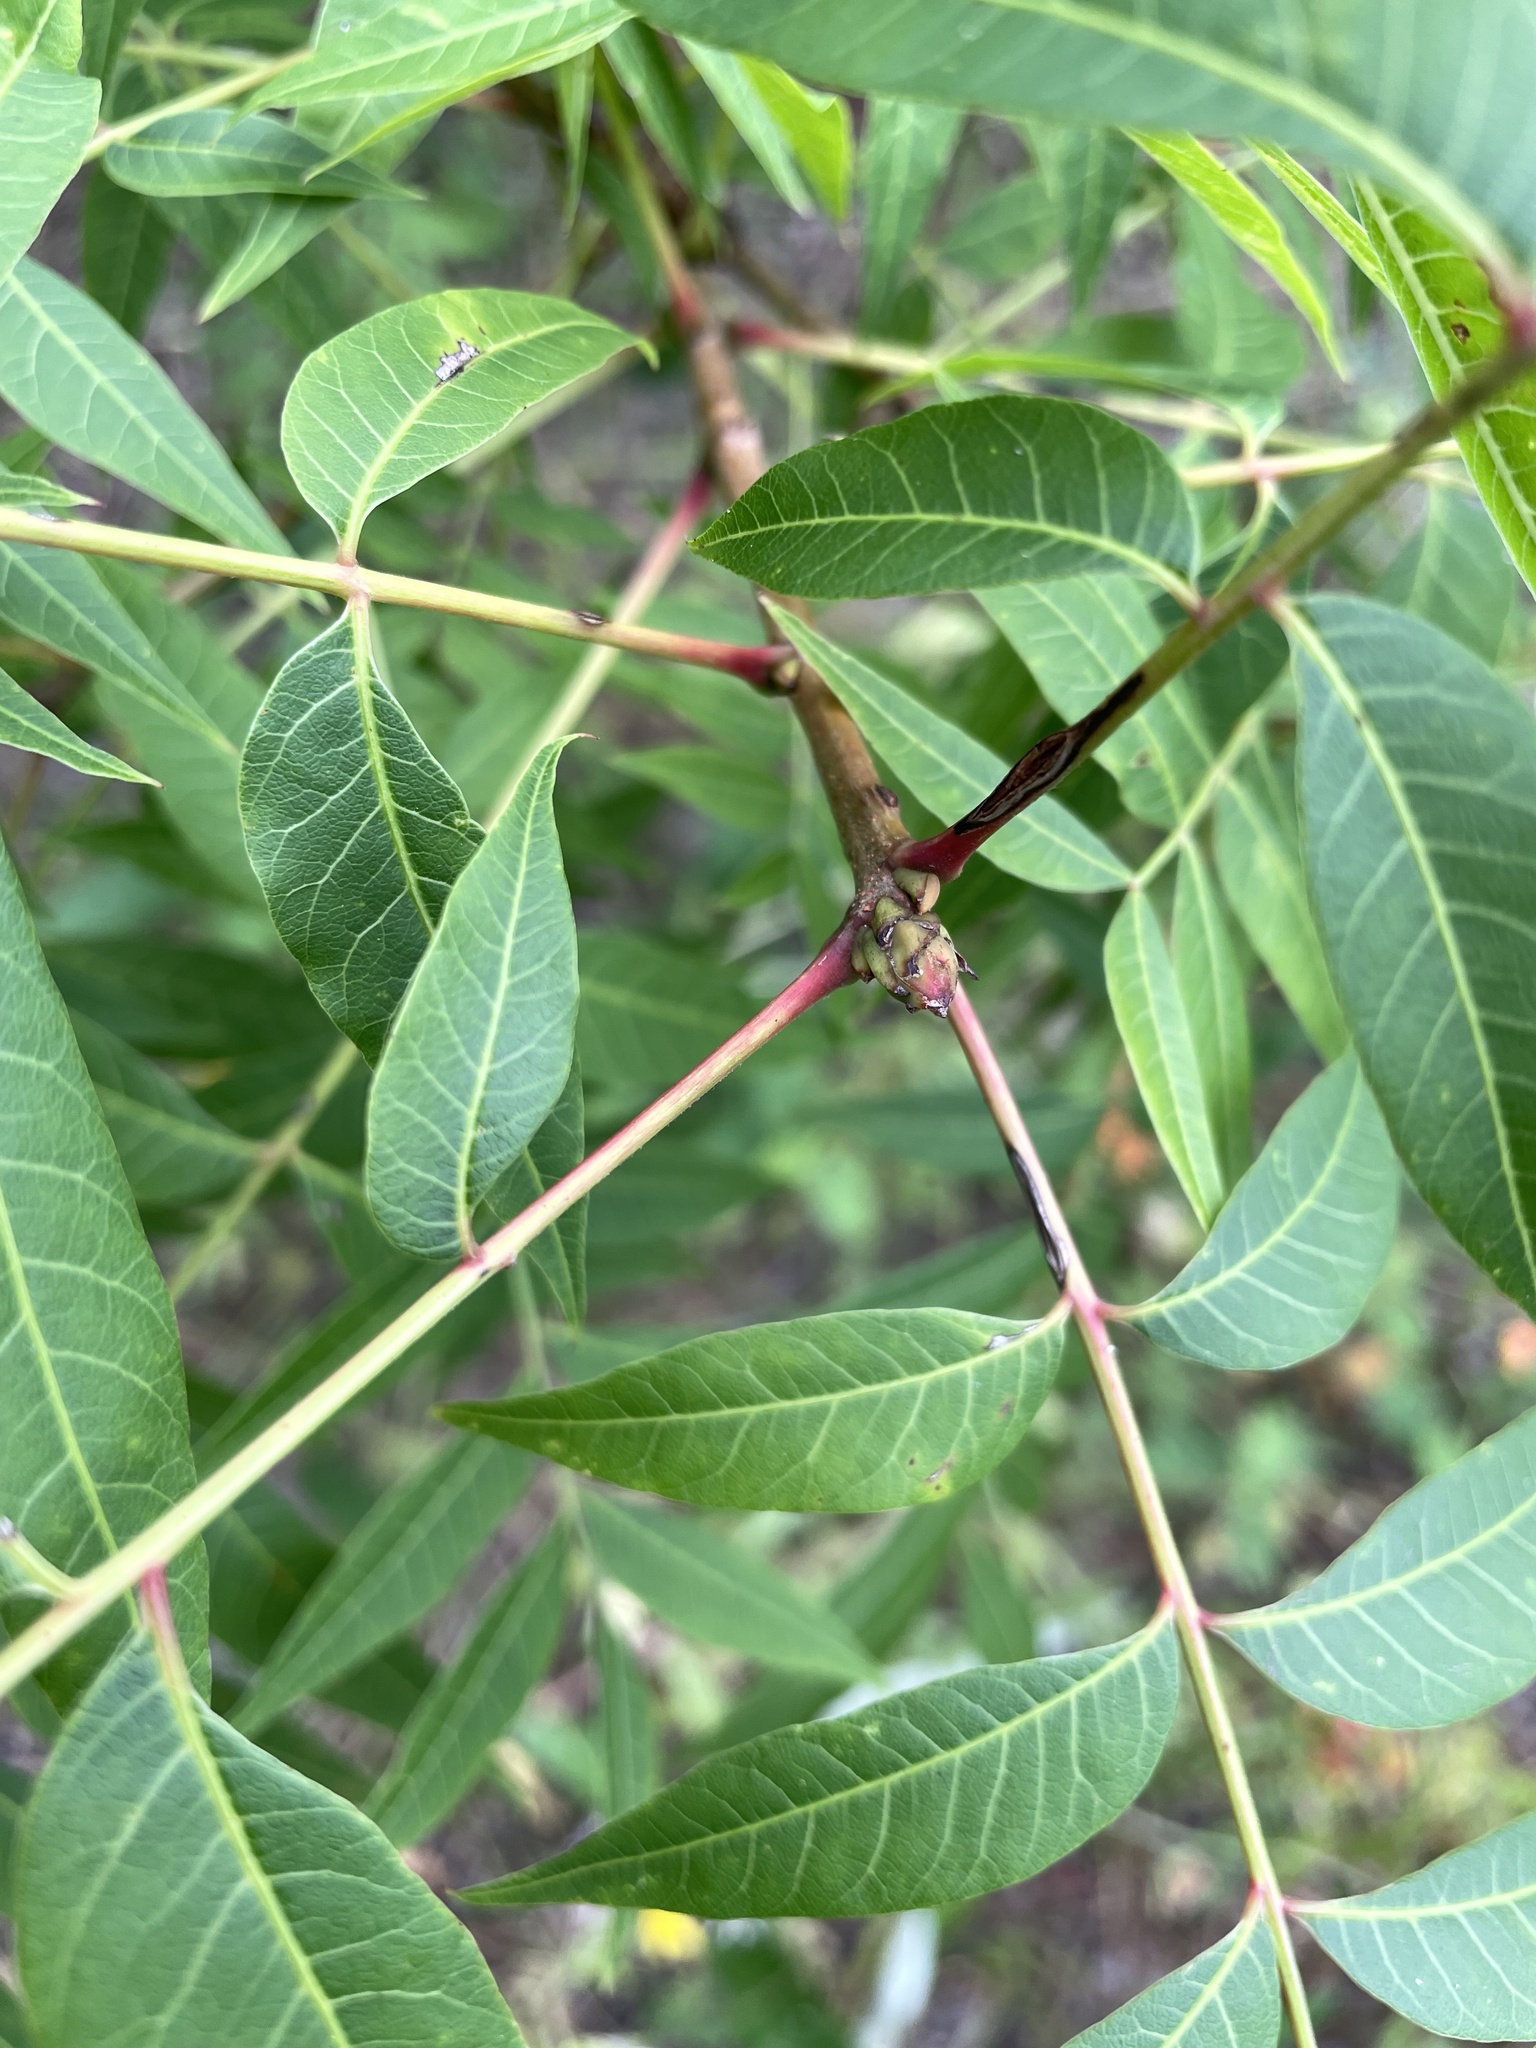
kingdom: Plantae
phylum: Tracheophyta
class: Magnoliopsida
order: Sapindales
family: Anacardiaceae
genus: Pistacia
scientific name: Pistacia chinensis
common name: Chinese pistache
